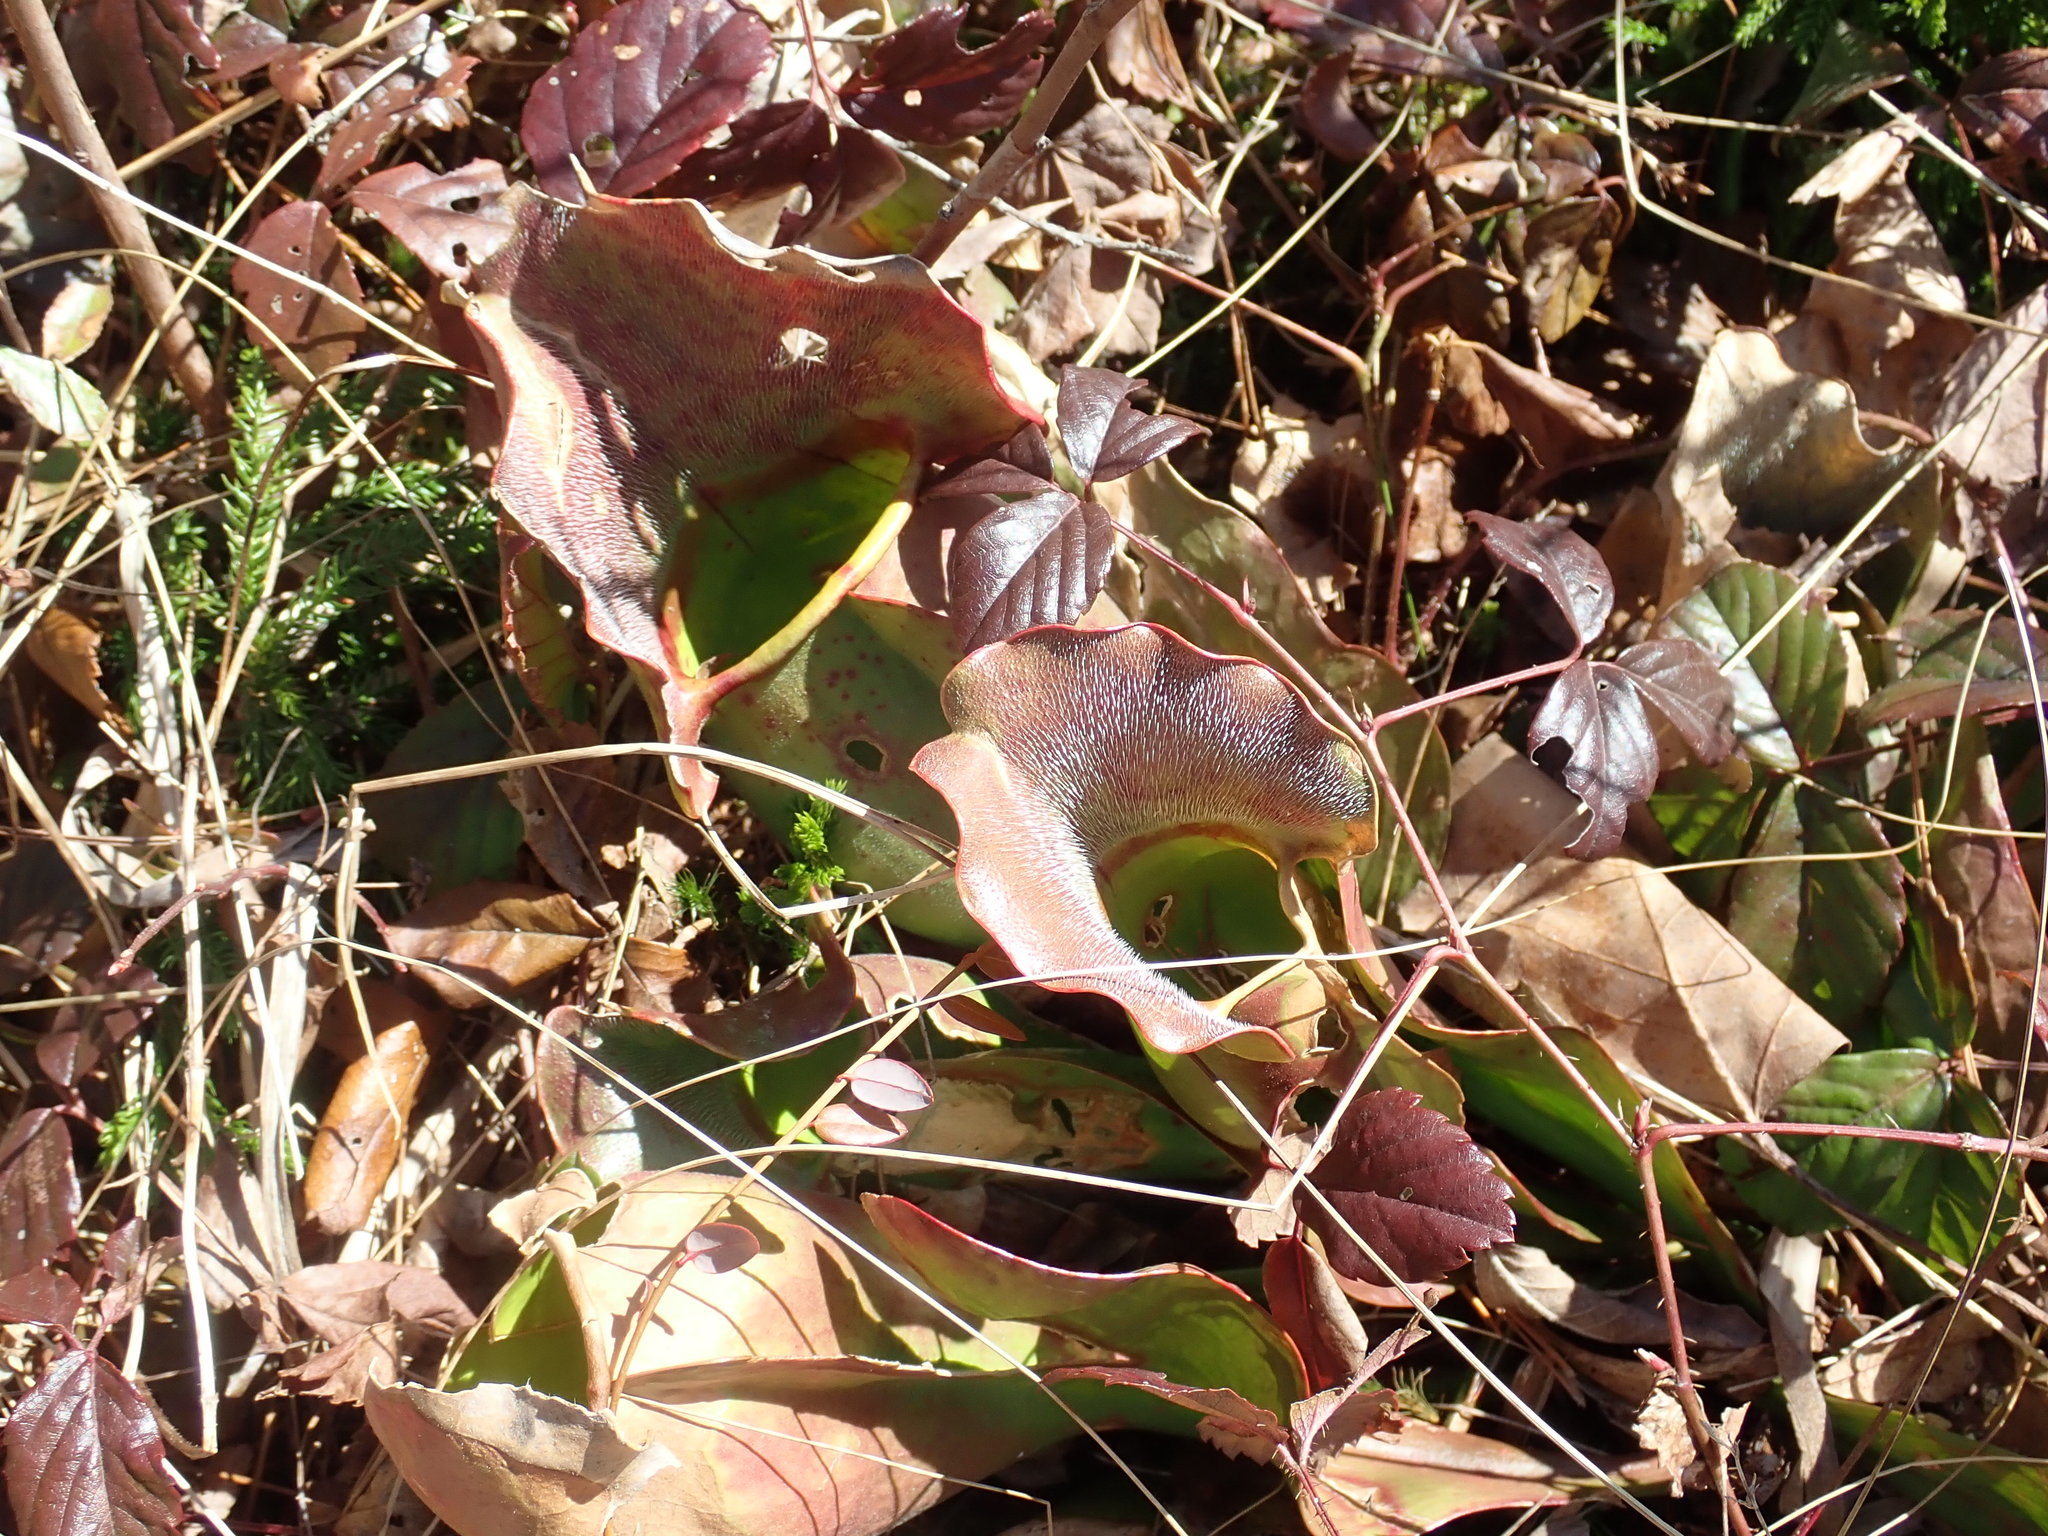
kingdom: Plantae
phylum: Tracheophyta
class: Magnoliopsida
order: Ericales
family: Sarraceniaceae
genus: Sarracenia
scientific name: Sarracenia purpurea
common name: Pitcherplant
